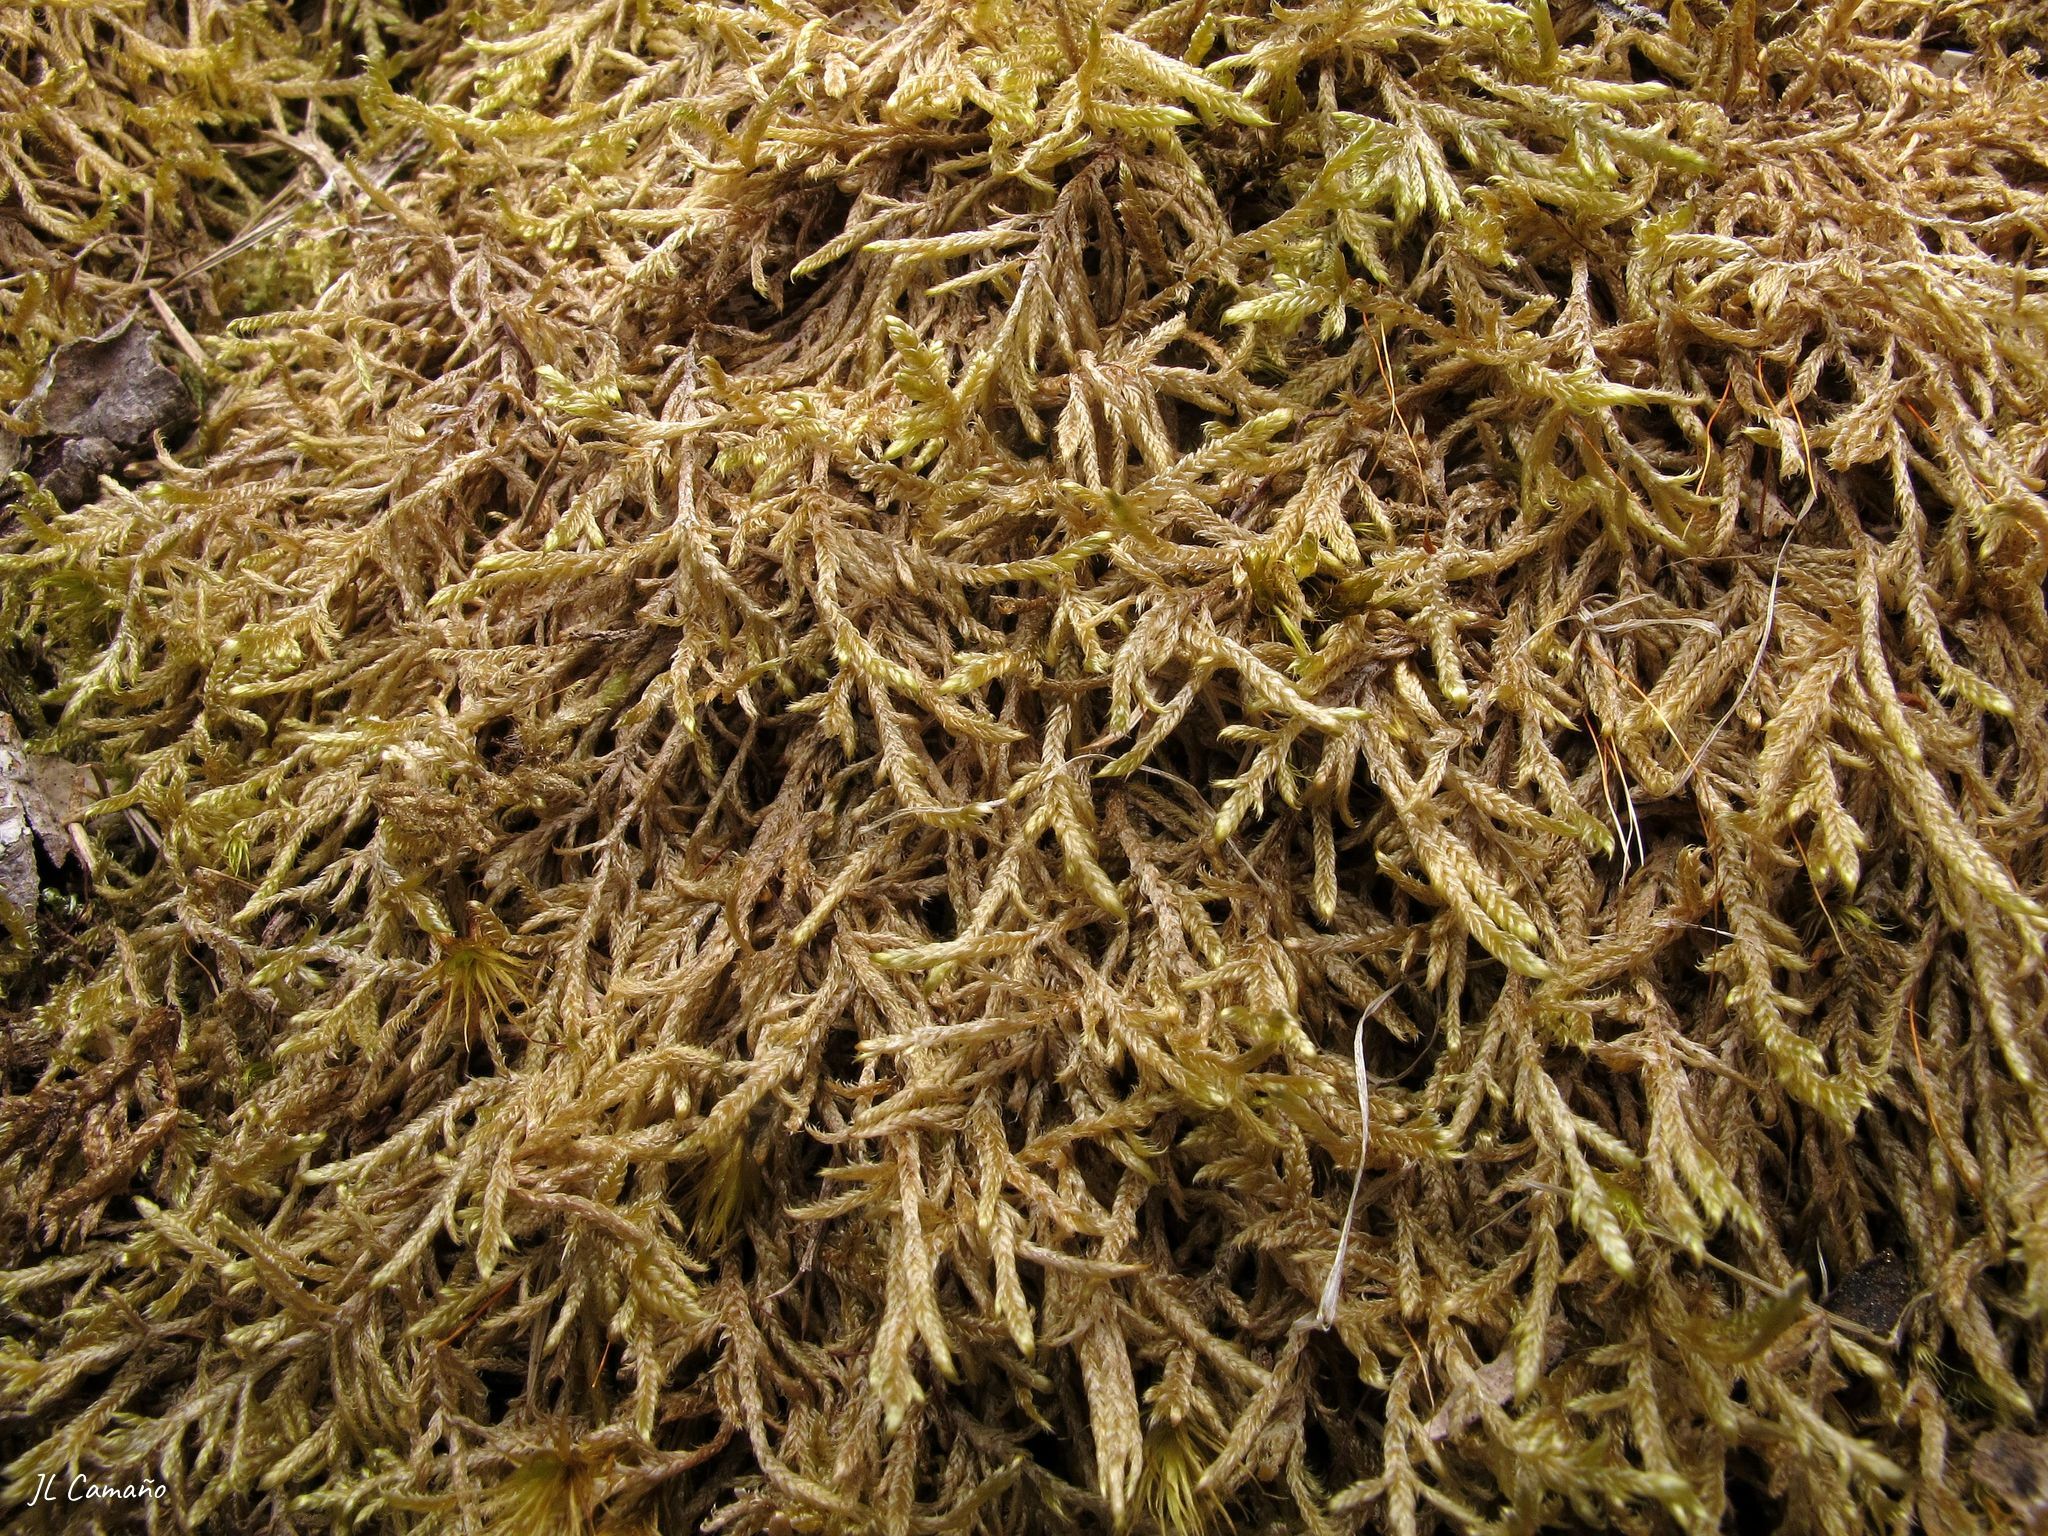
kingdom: Plantae
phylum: Bryophyta
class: Bryopsida
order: Hypnales
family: Hypnaceae
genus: Hypnum
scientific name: Hypnum cupressiforme
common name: Cypress-leaved plait-moss
